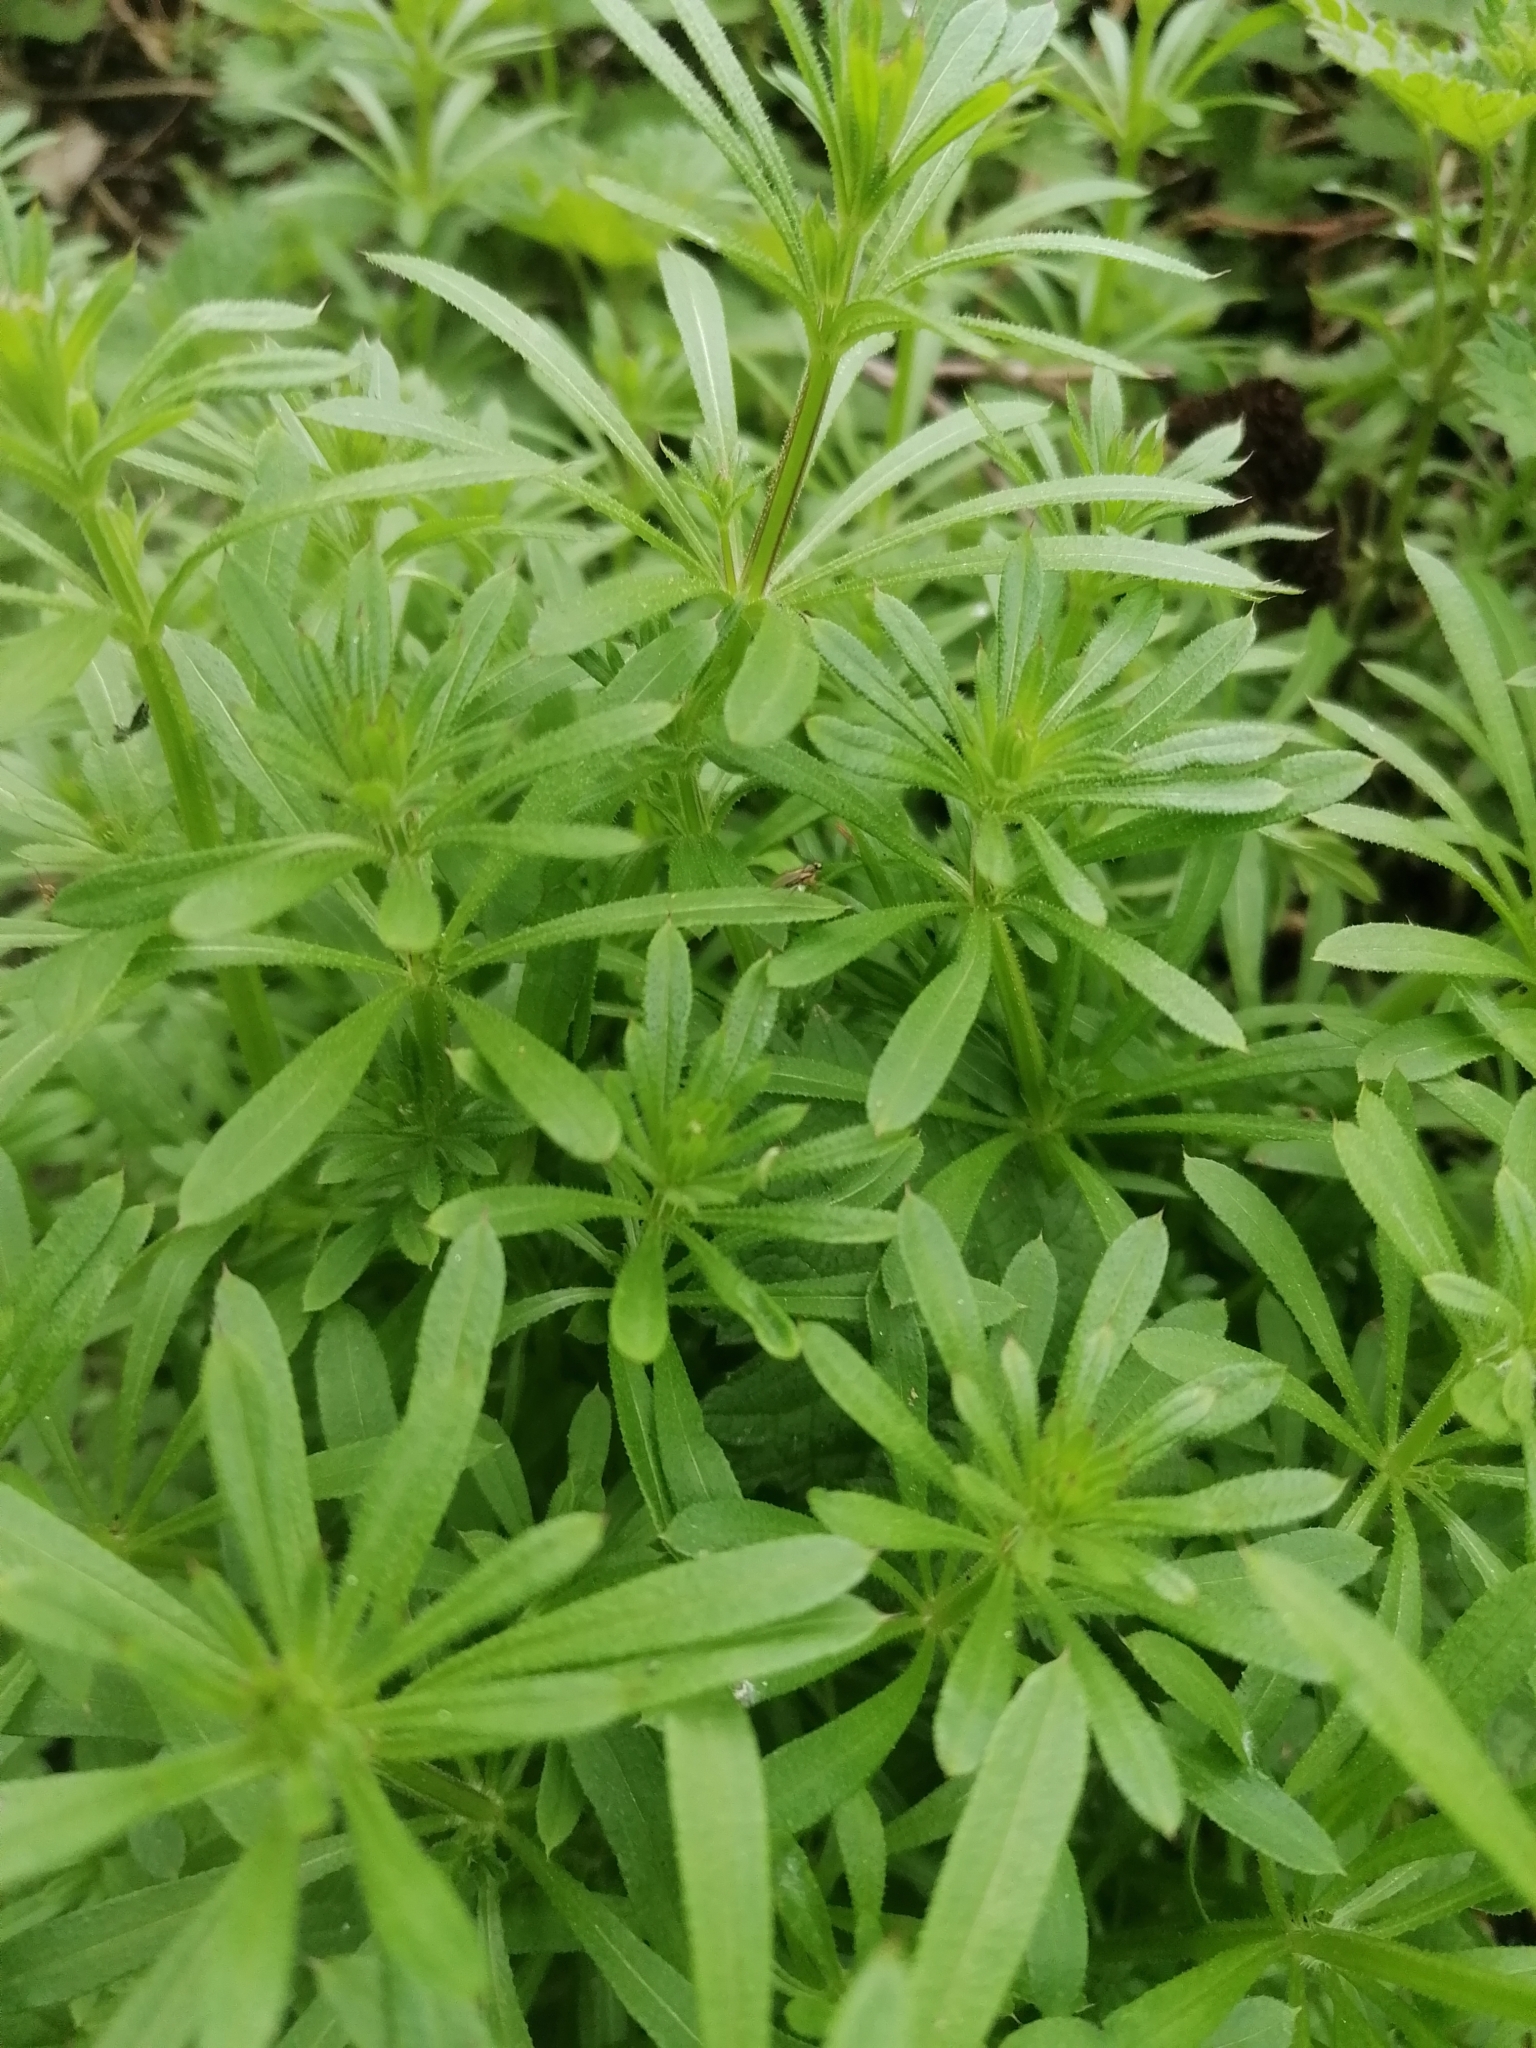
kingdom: Plantae
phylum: Tracheophyta
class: Magnoliopsida
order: Gentianales
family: Rubiaceae
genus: Galium
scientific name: Galium aparine
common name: Cleavers
